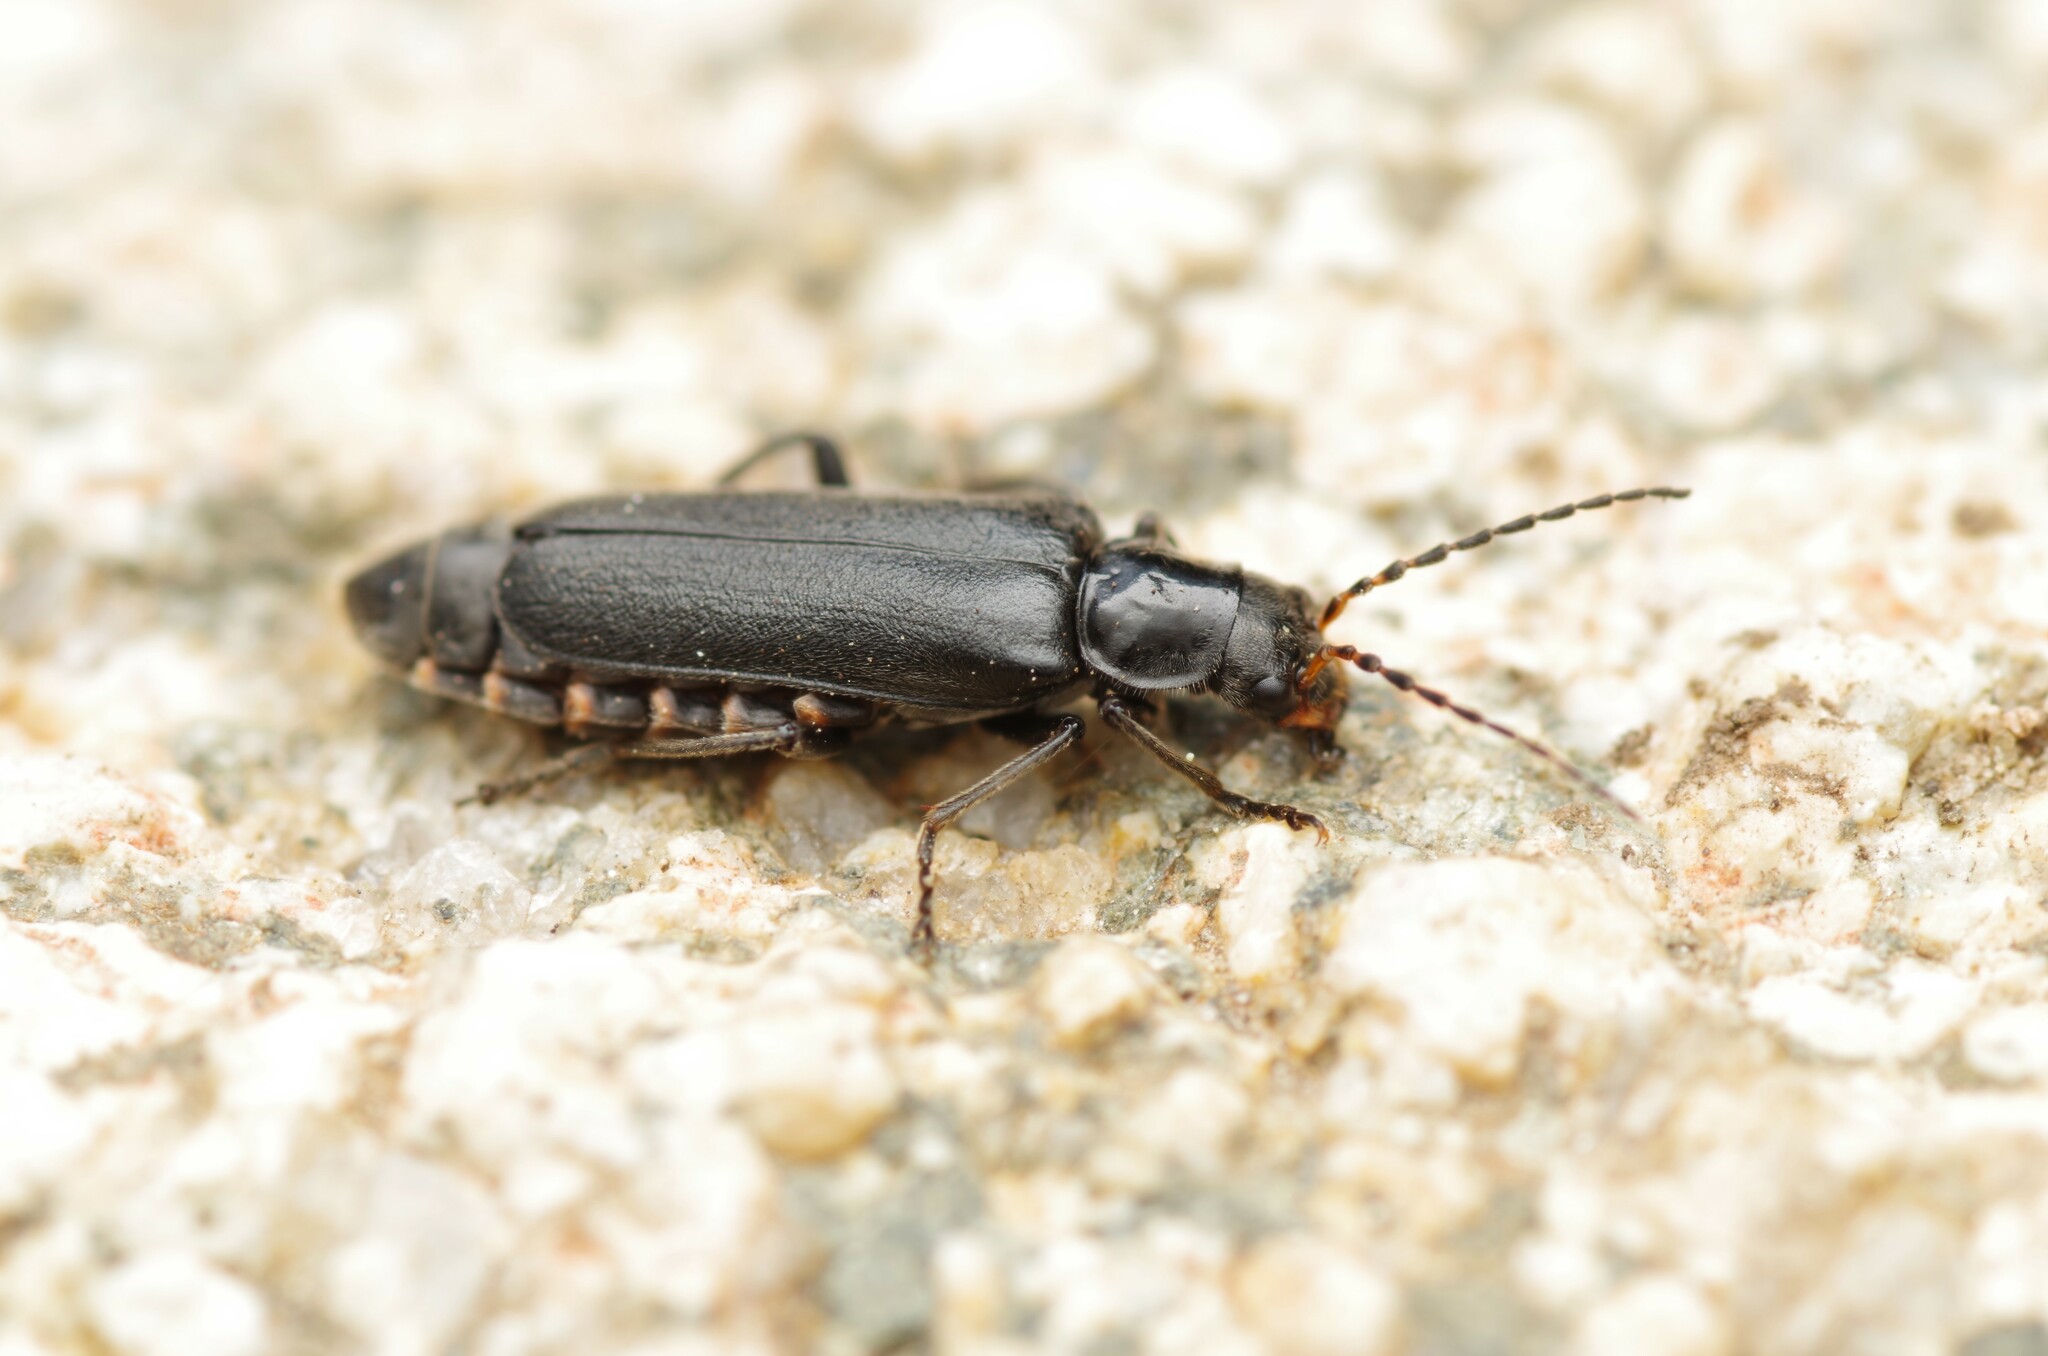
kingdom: Animalia
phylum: Arthropoda
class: Insecta
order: Coleoptera
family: Cantharidae
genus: Cantharis
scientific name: Cantharis tristis
